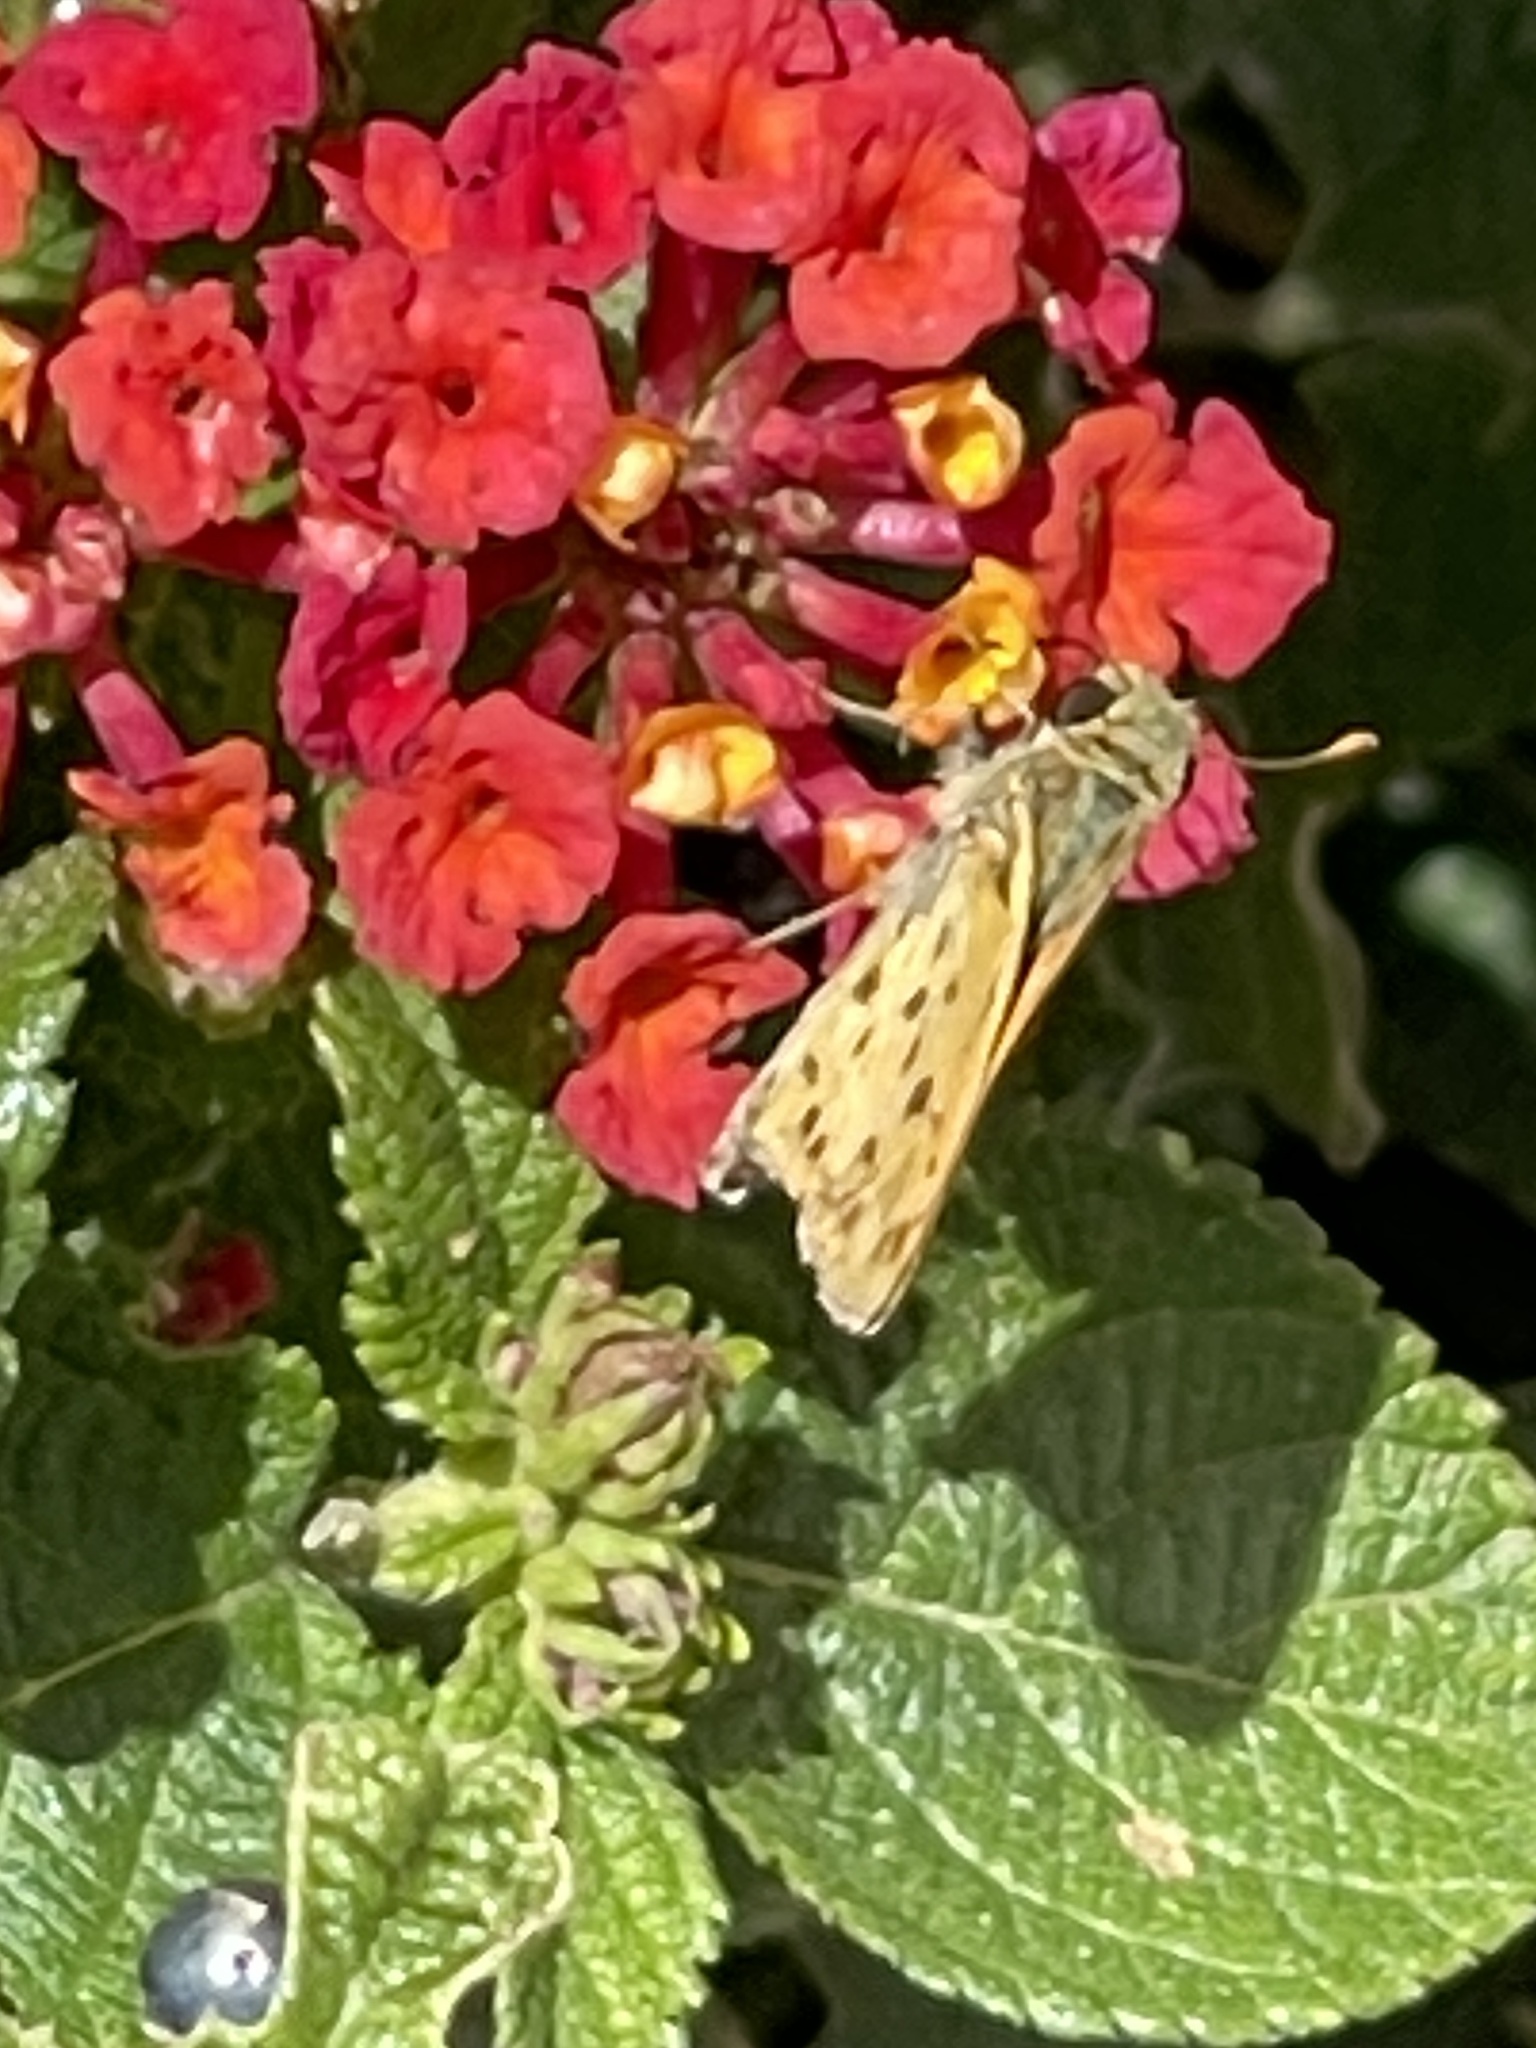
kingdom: Animalia
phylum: Arthropoda
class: Insecta
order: Lepidoptera
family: Hesperiidae
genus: Hylephila
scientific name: Hylephila phyleus
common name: Fiery skipper
